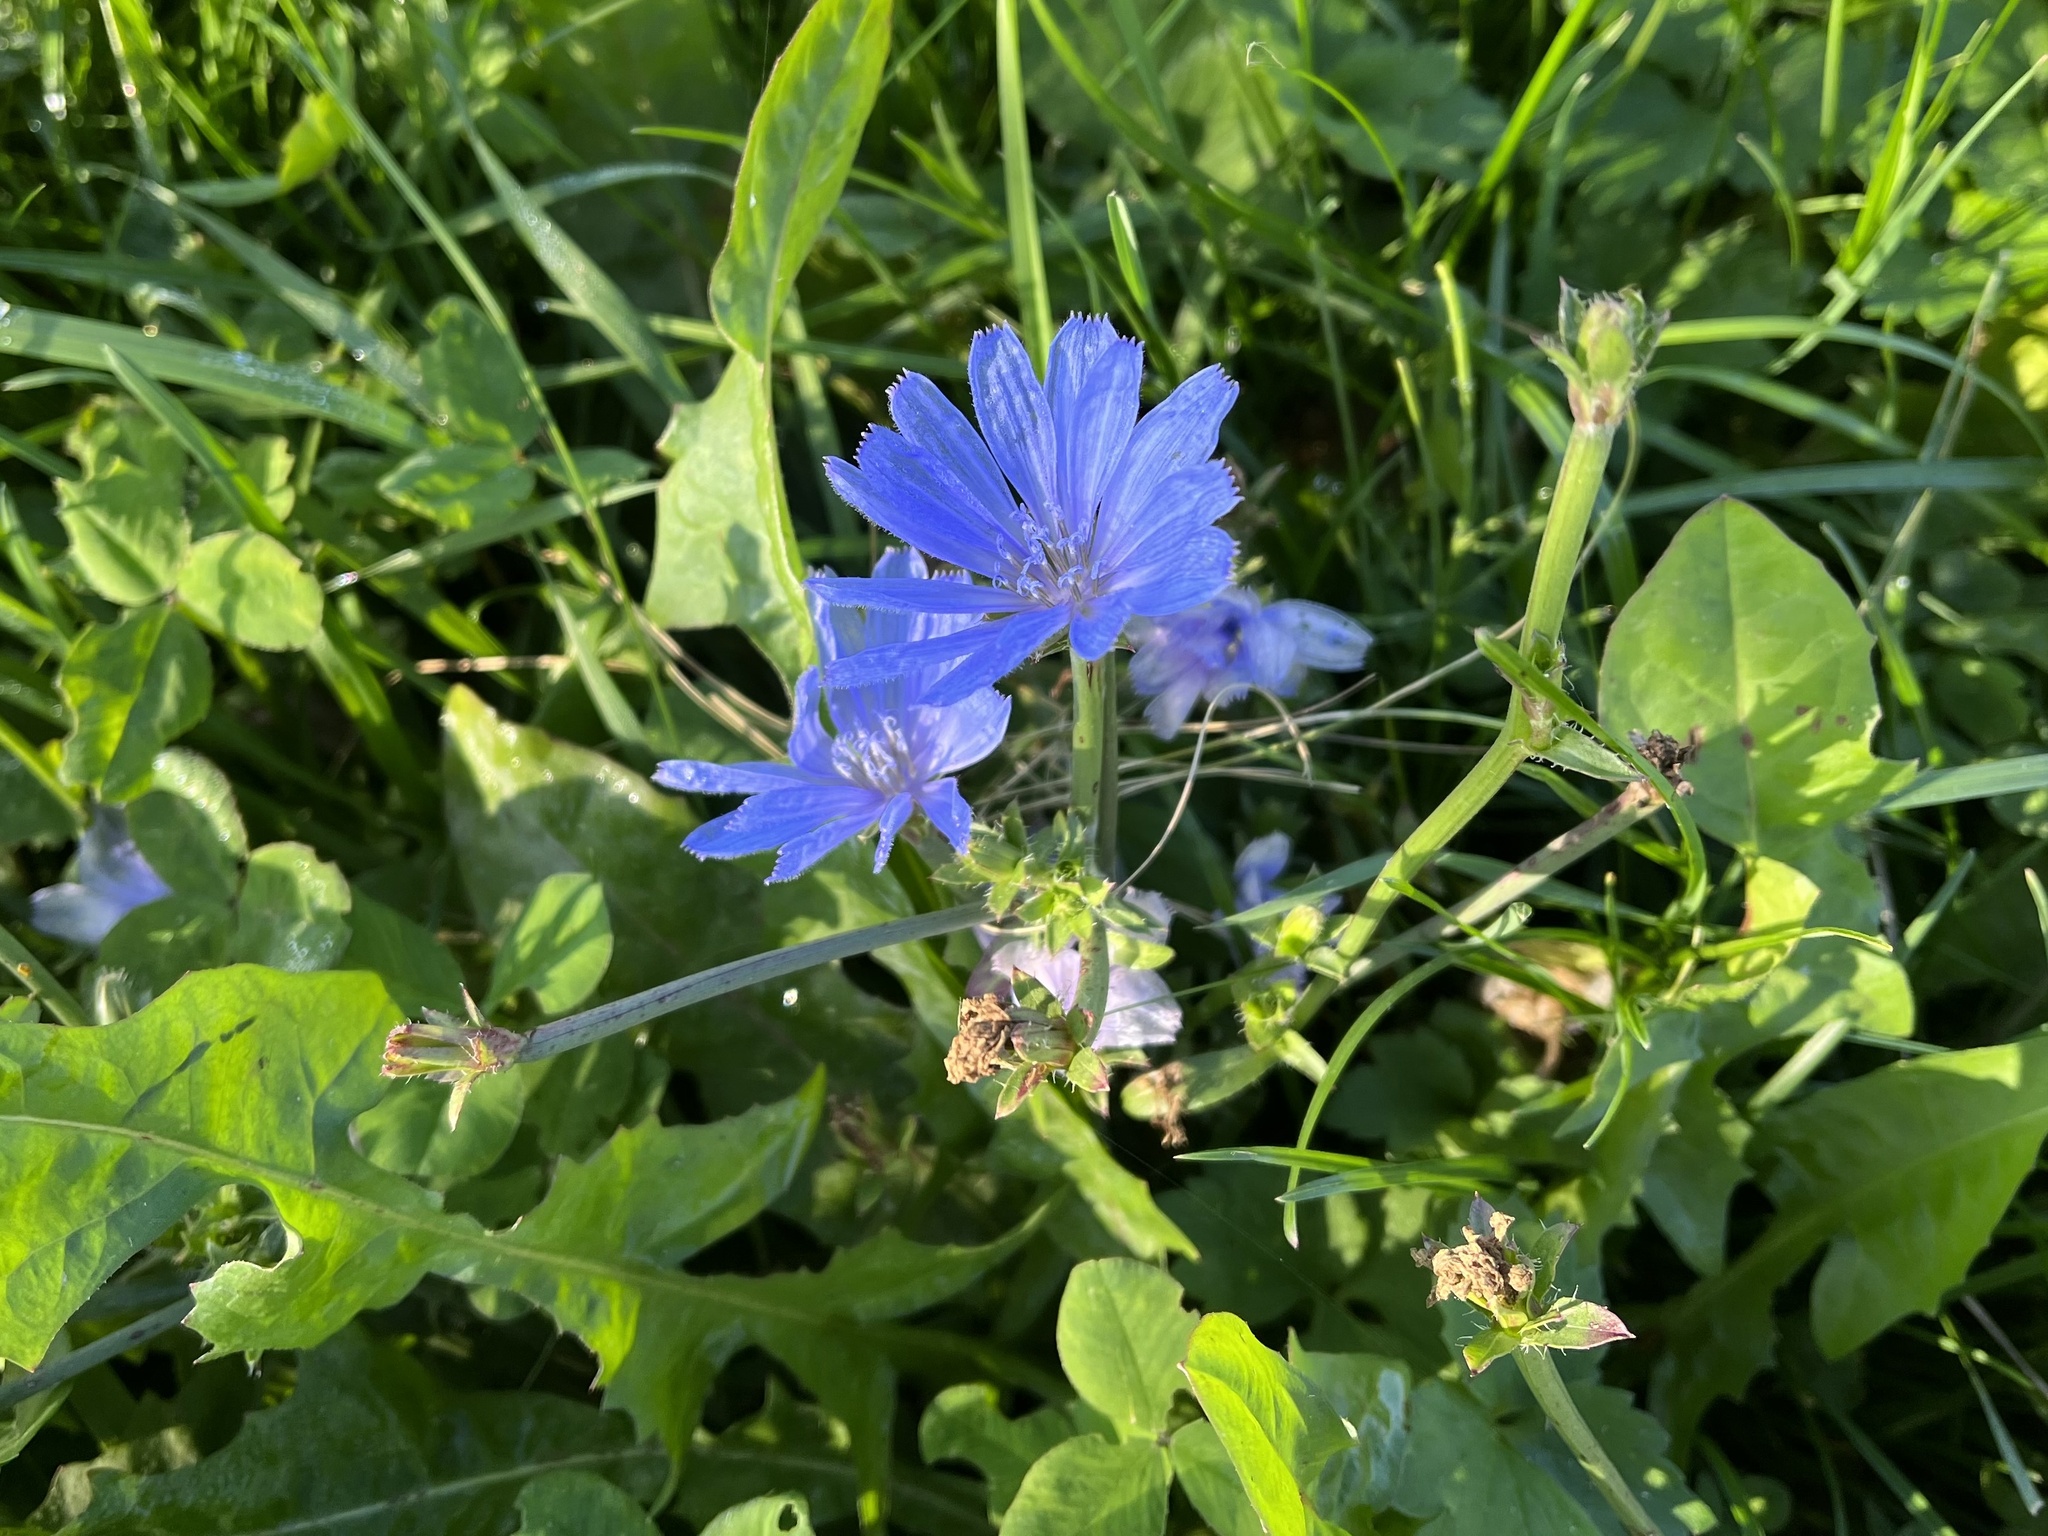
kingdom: Plantae
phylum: Tracheophyta
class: Magnoliopsida
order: Asterales
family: Asteraceae
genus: Cichorium
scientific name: Cichorium intybus
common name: Chicory
